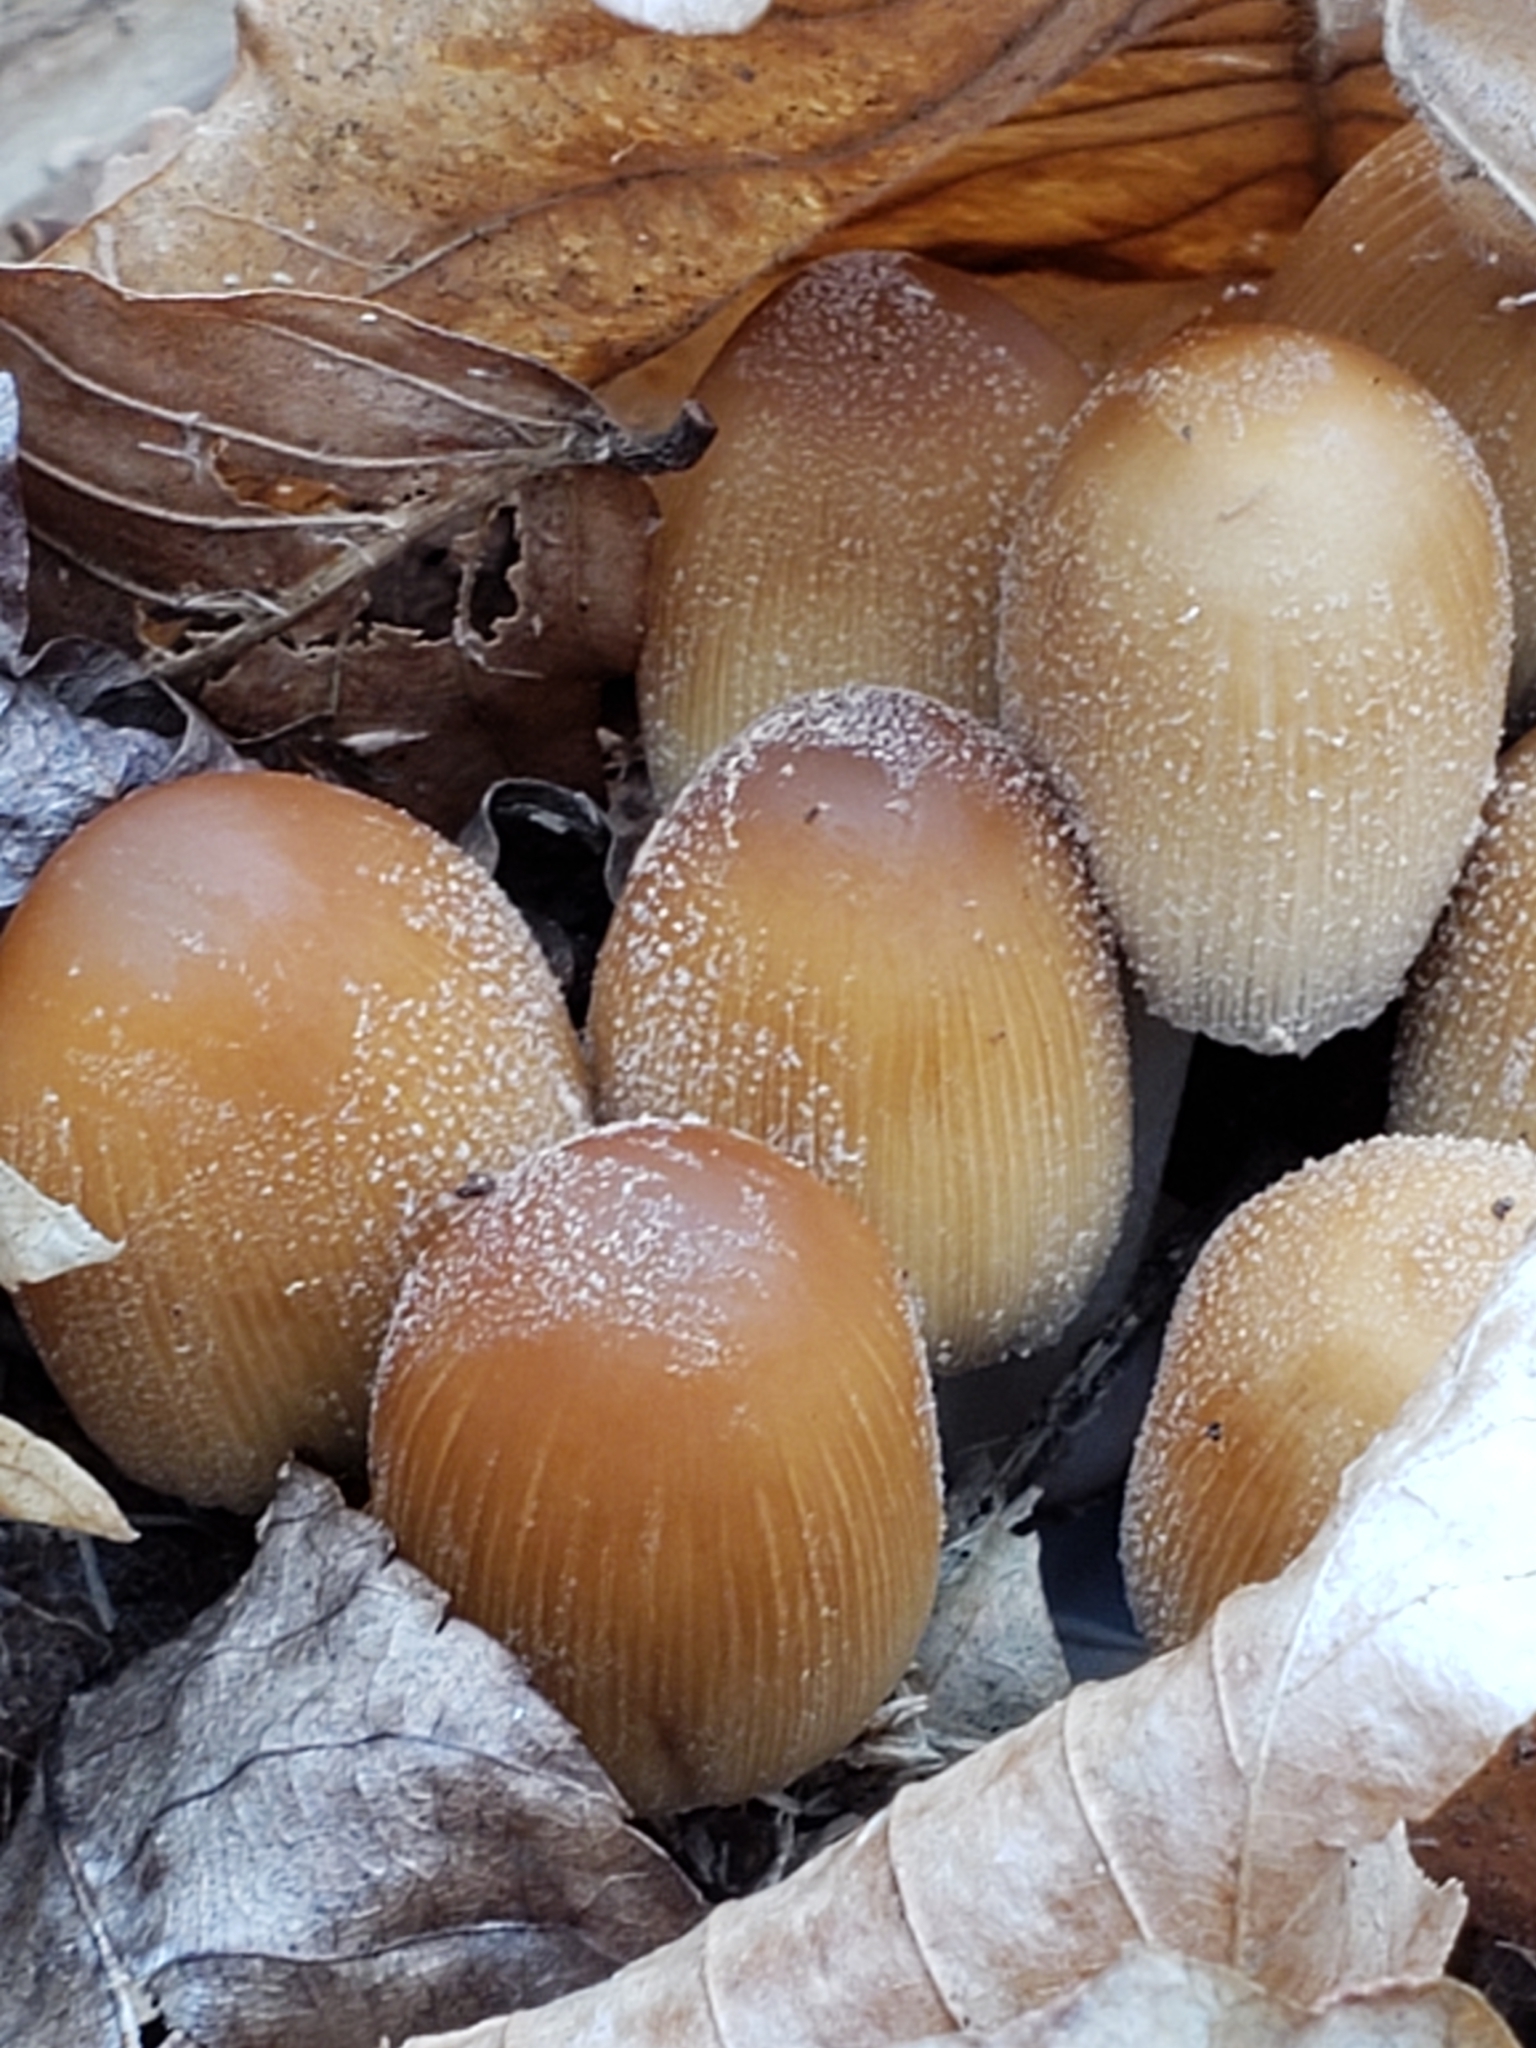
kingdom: Fungi
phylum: Basidiomycota
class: Agaricomycetes
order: Agaricales
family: Psathyrellaceae
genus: Coprinellus
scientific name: Coprinellus micaceus
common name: Glistening ink-cap
